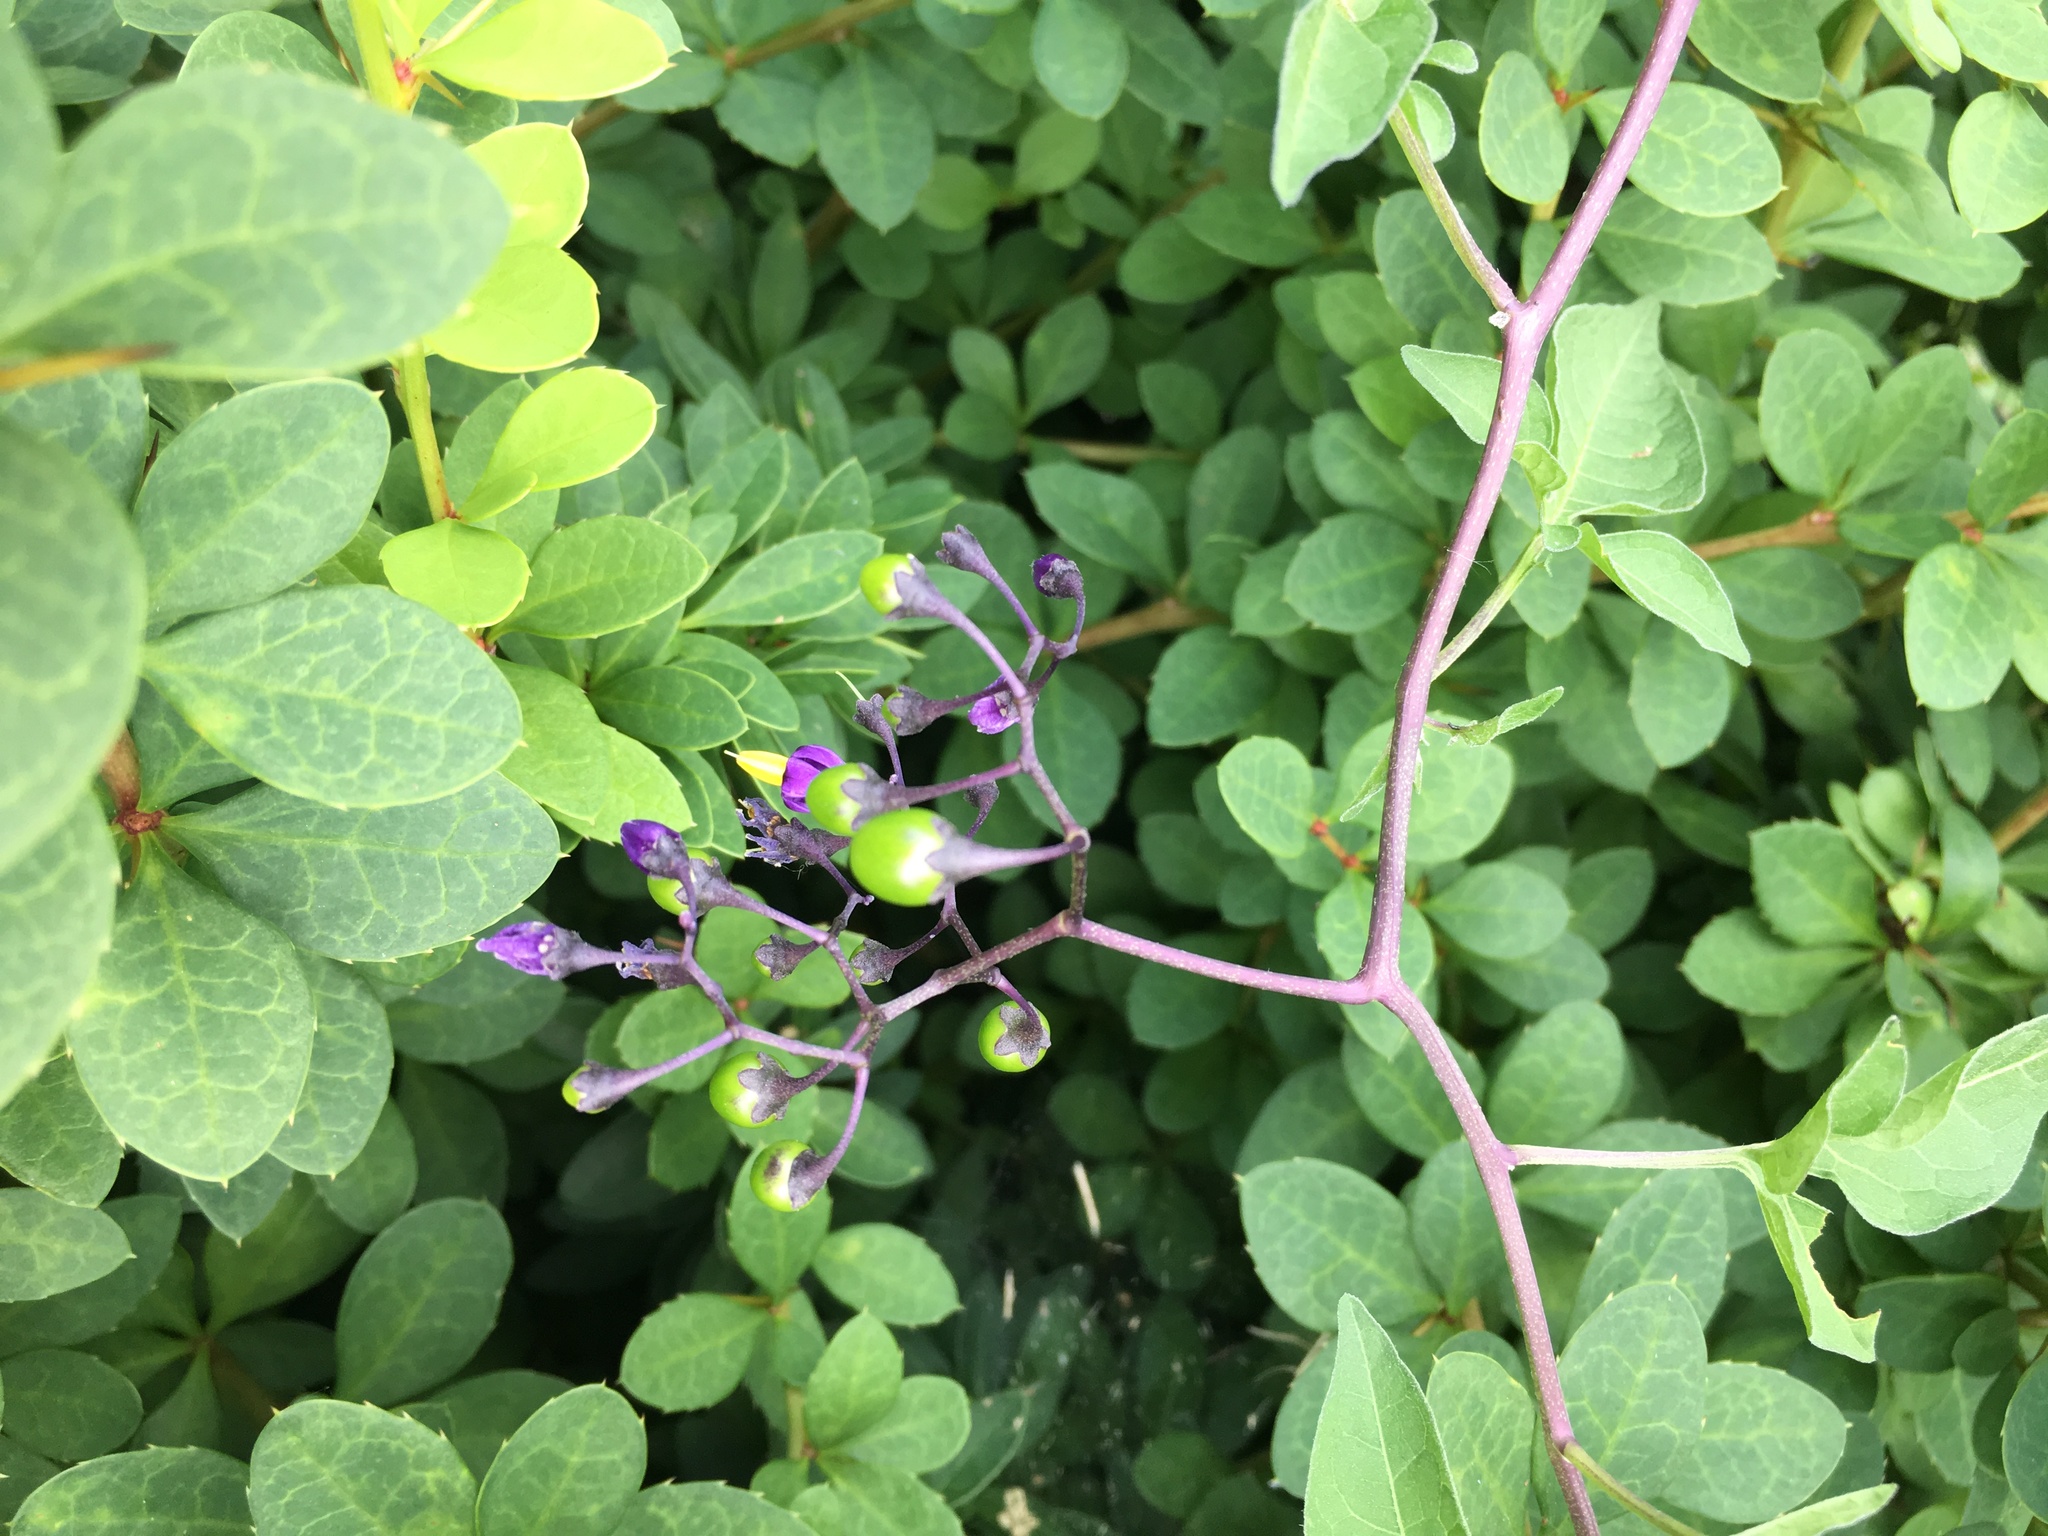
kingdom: Plantae
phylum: Tracheophyta
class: Magnoliopsida
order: Solanales
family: Solanaceae
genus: Solanum
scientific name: Solanum dulcamara
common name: Climbing nightshade
